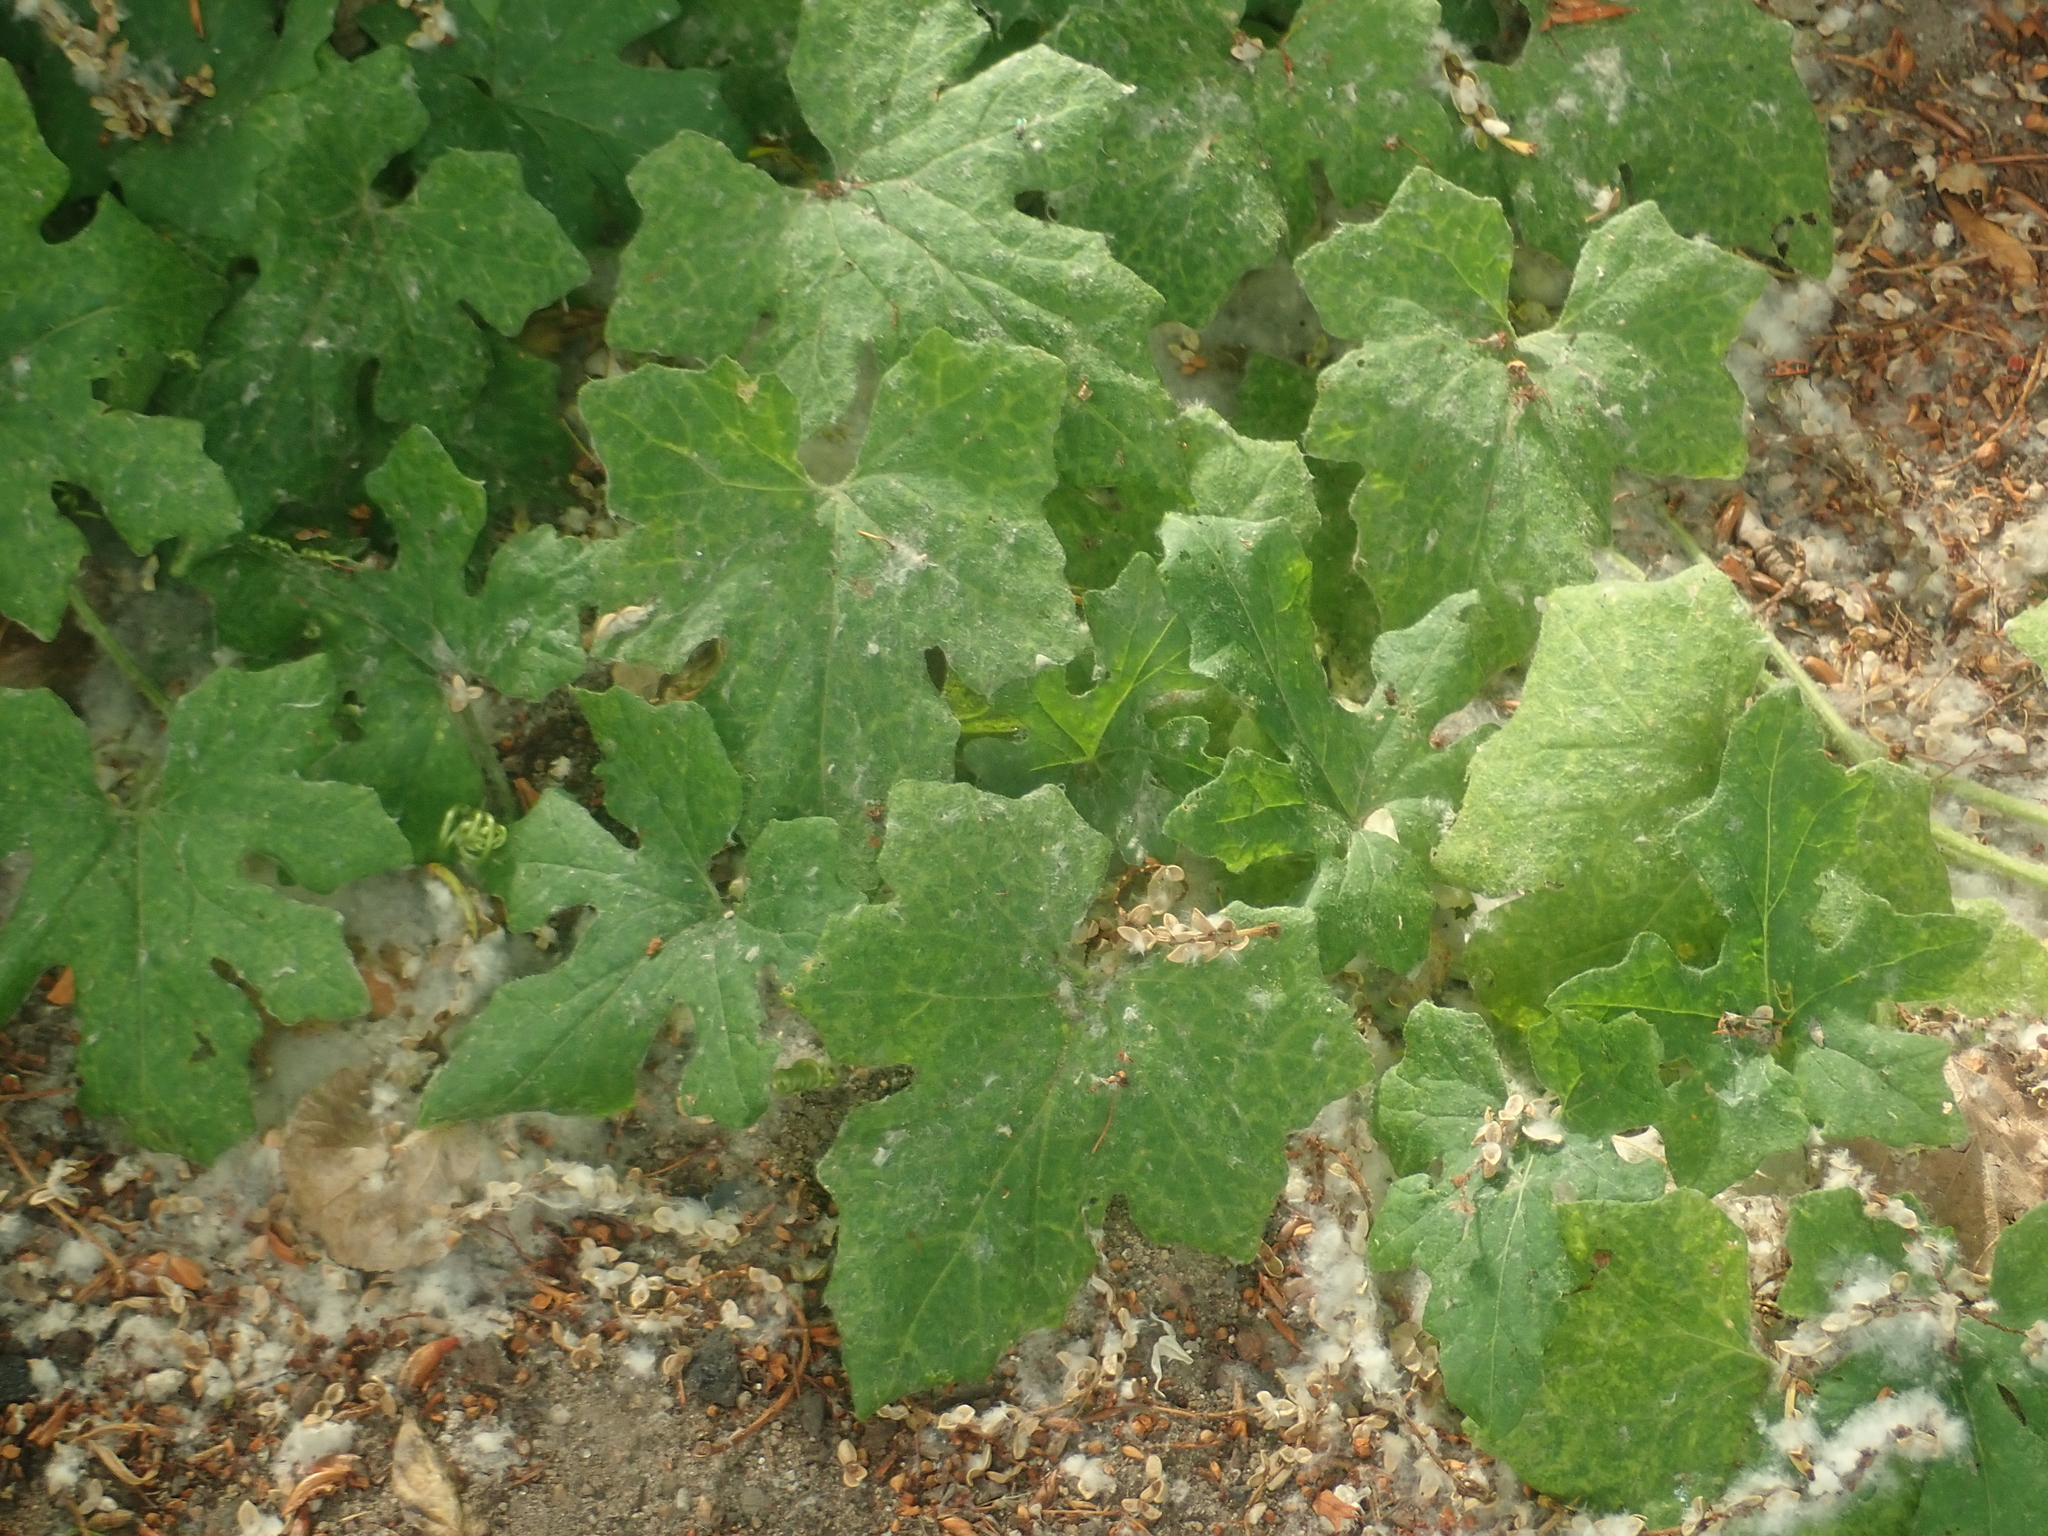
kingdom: Plantae
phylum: Tracheophyta
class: Magnoliopsida
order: Cucurbitales
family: Cucurbitaceae
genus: Bryonia
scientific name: Bryonia cretica
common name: Cretan bryony
